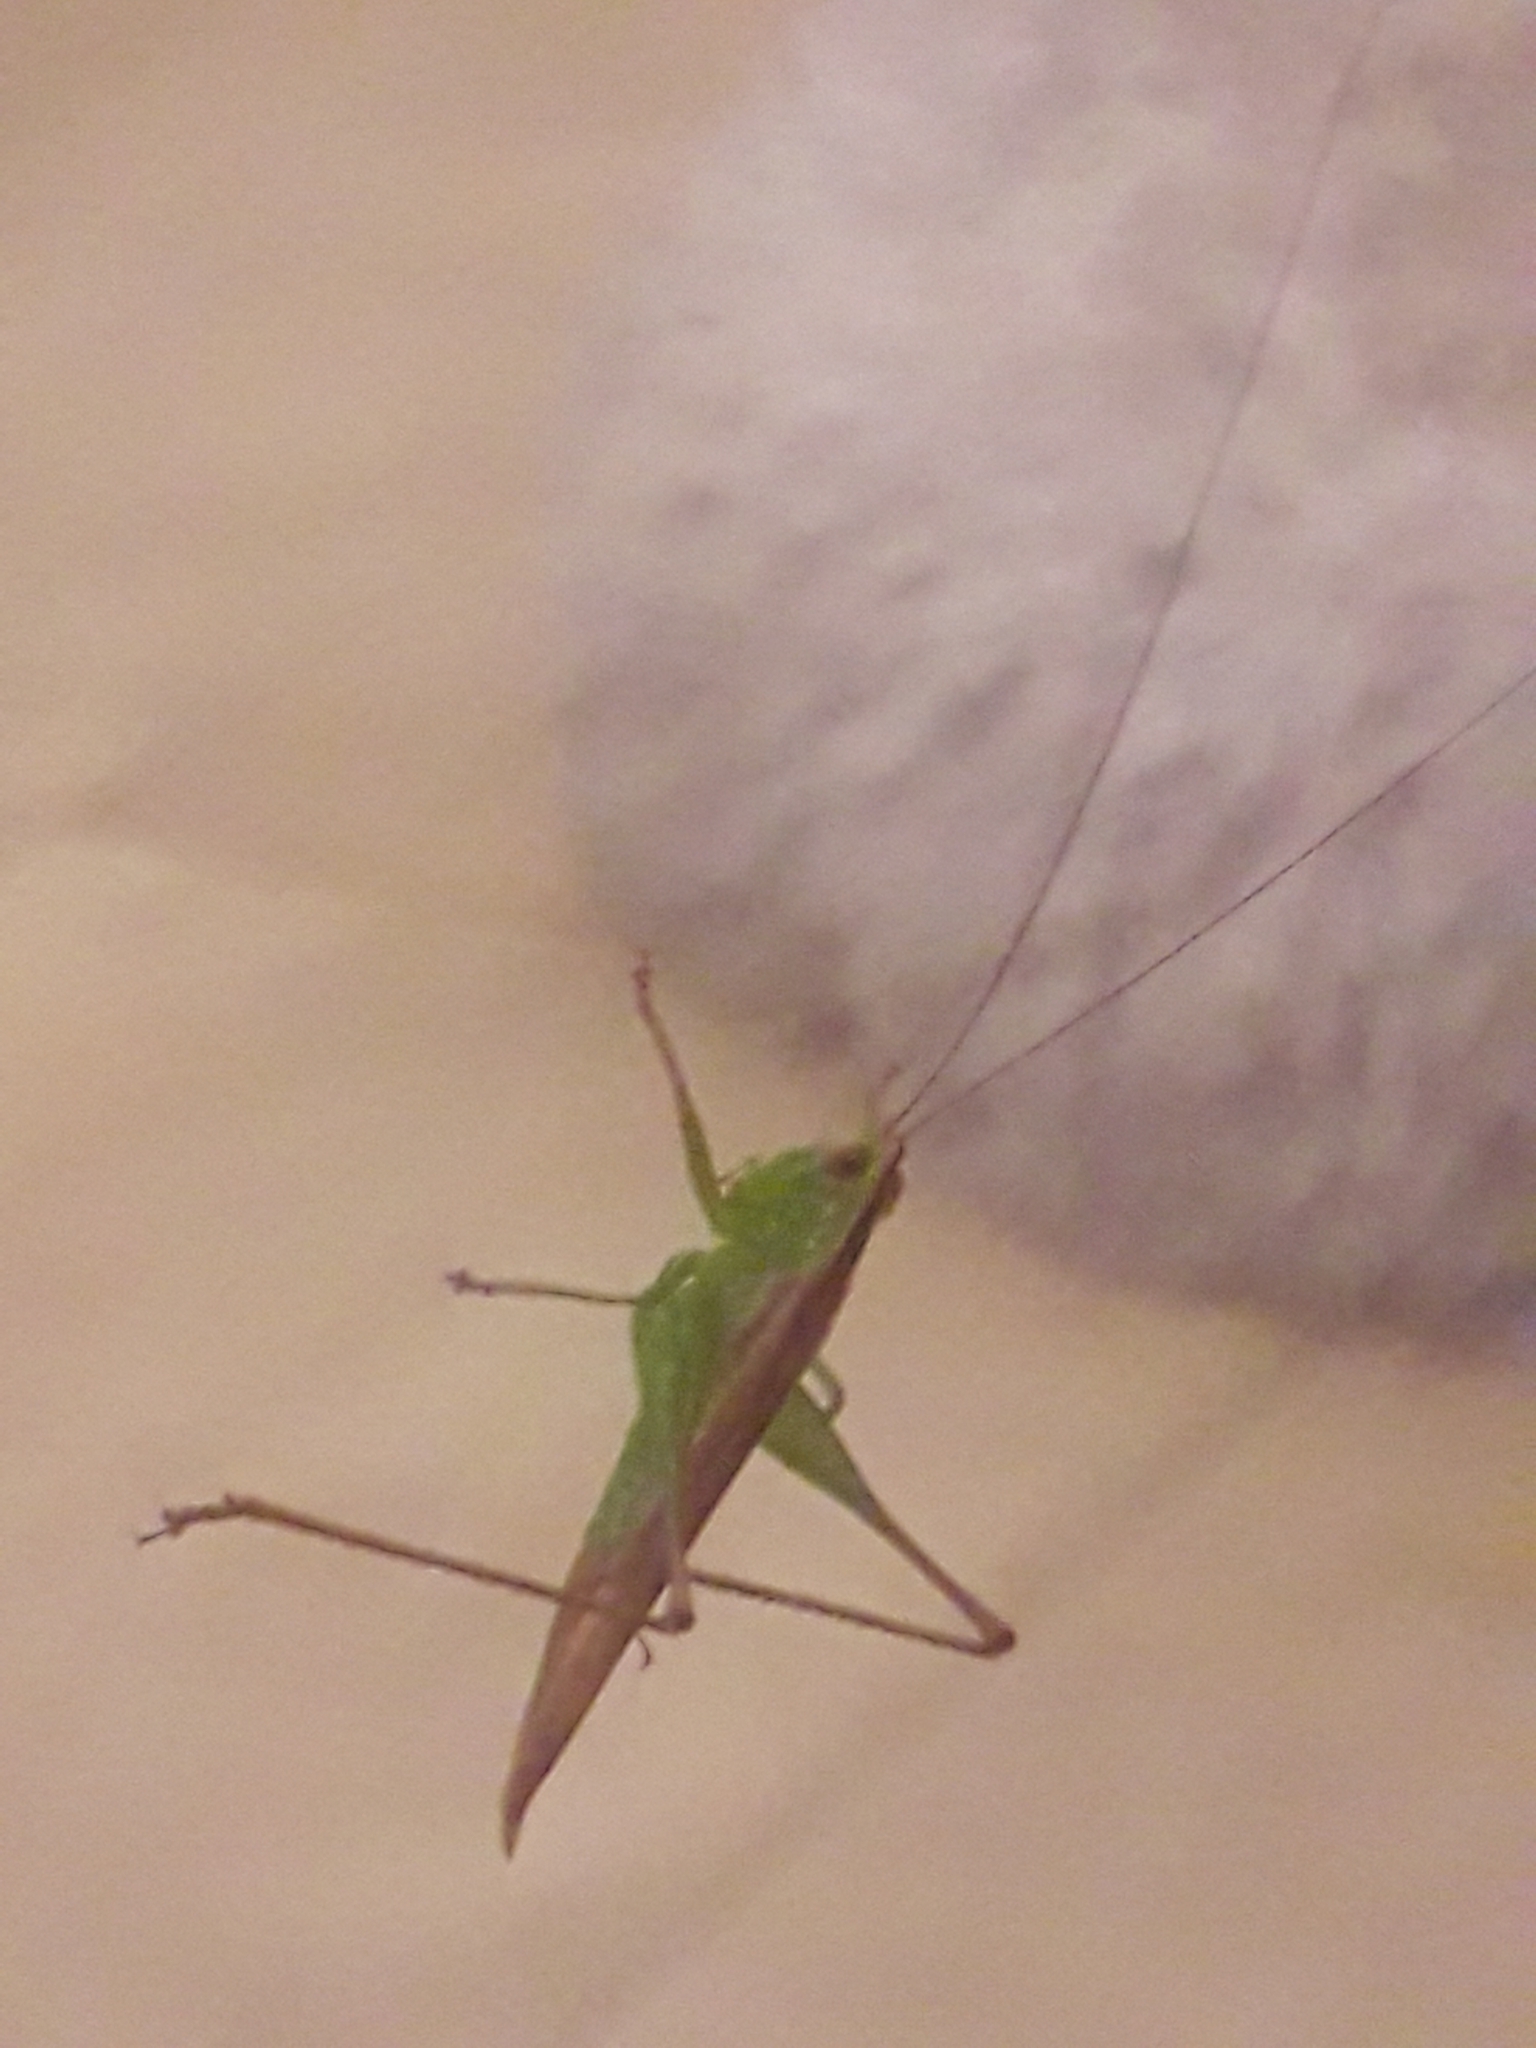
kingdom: Animalia
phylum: Arthropoda
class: Insecta
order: Orthoptera
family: Tettigoniidae
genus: Conocephalus
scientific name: Conocephalus cinereus
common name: Caribbean meadow katydid
